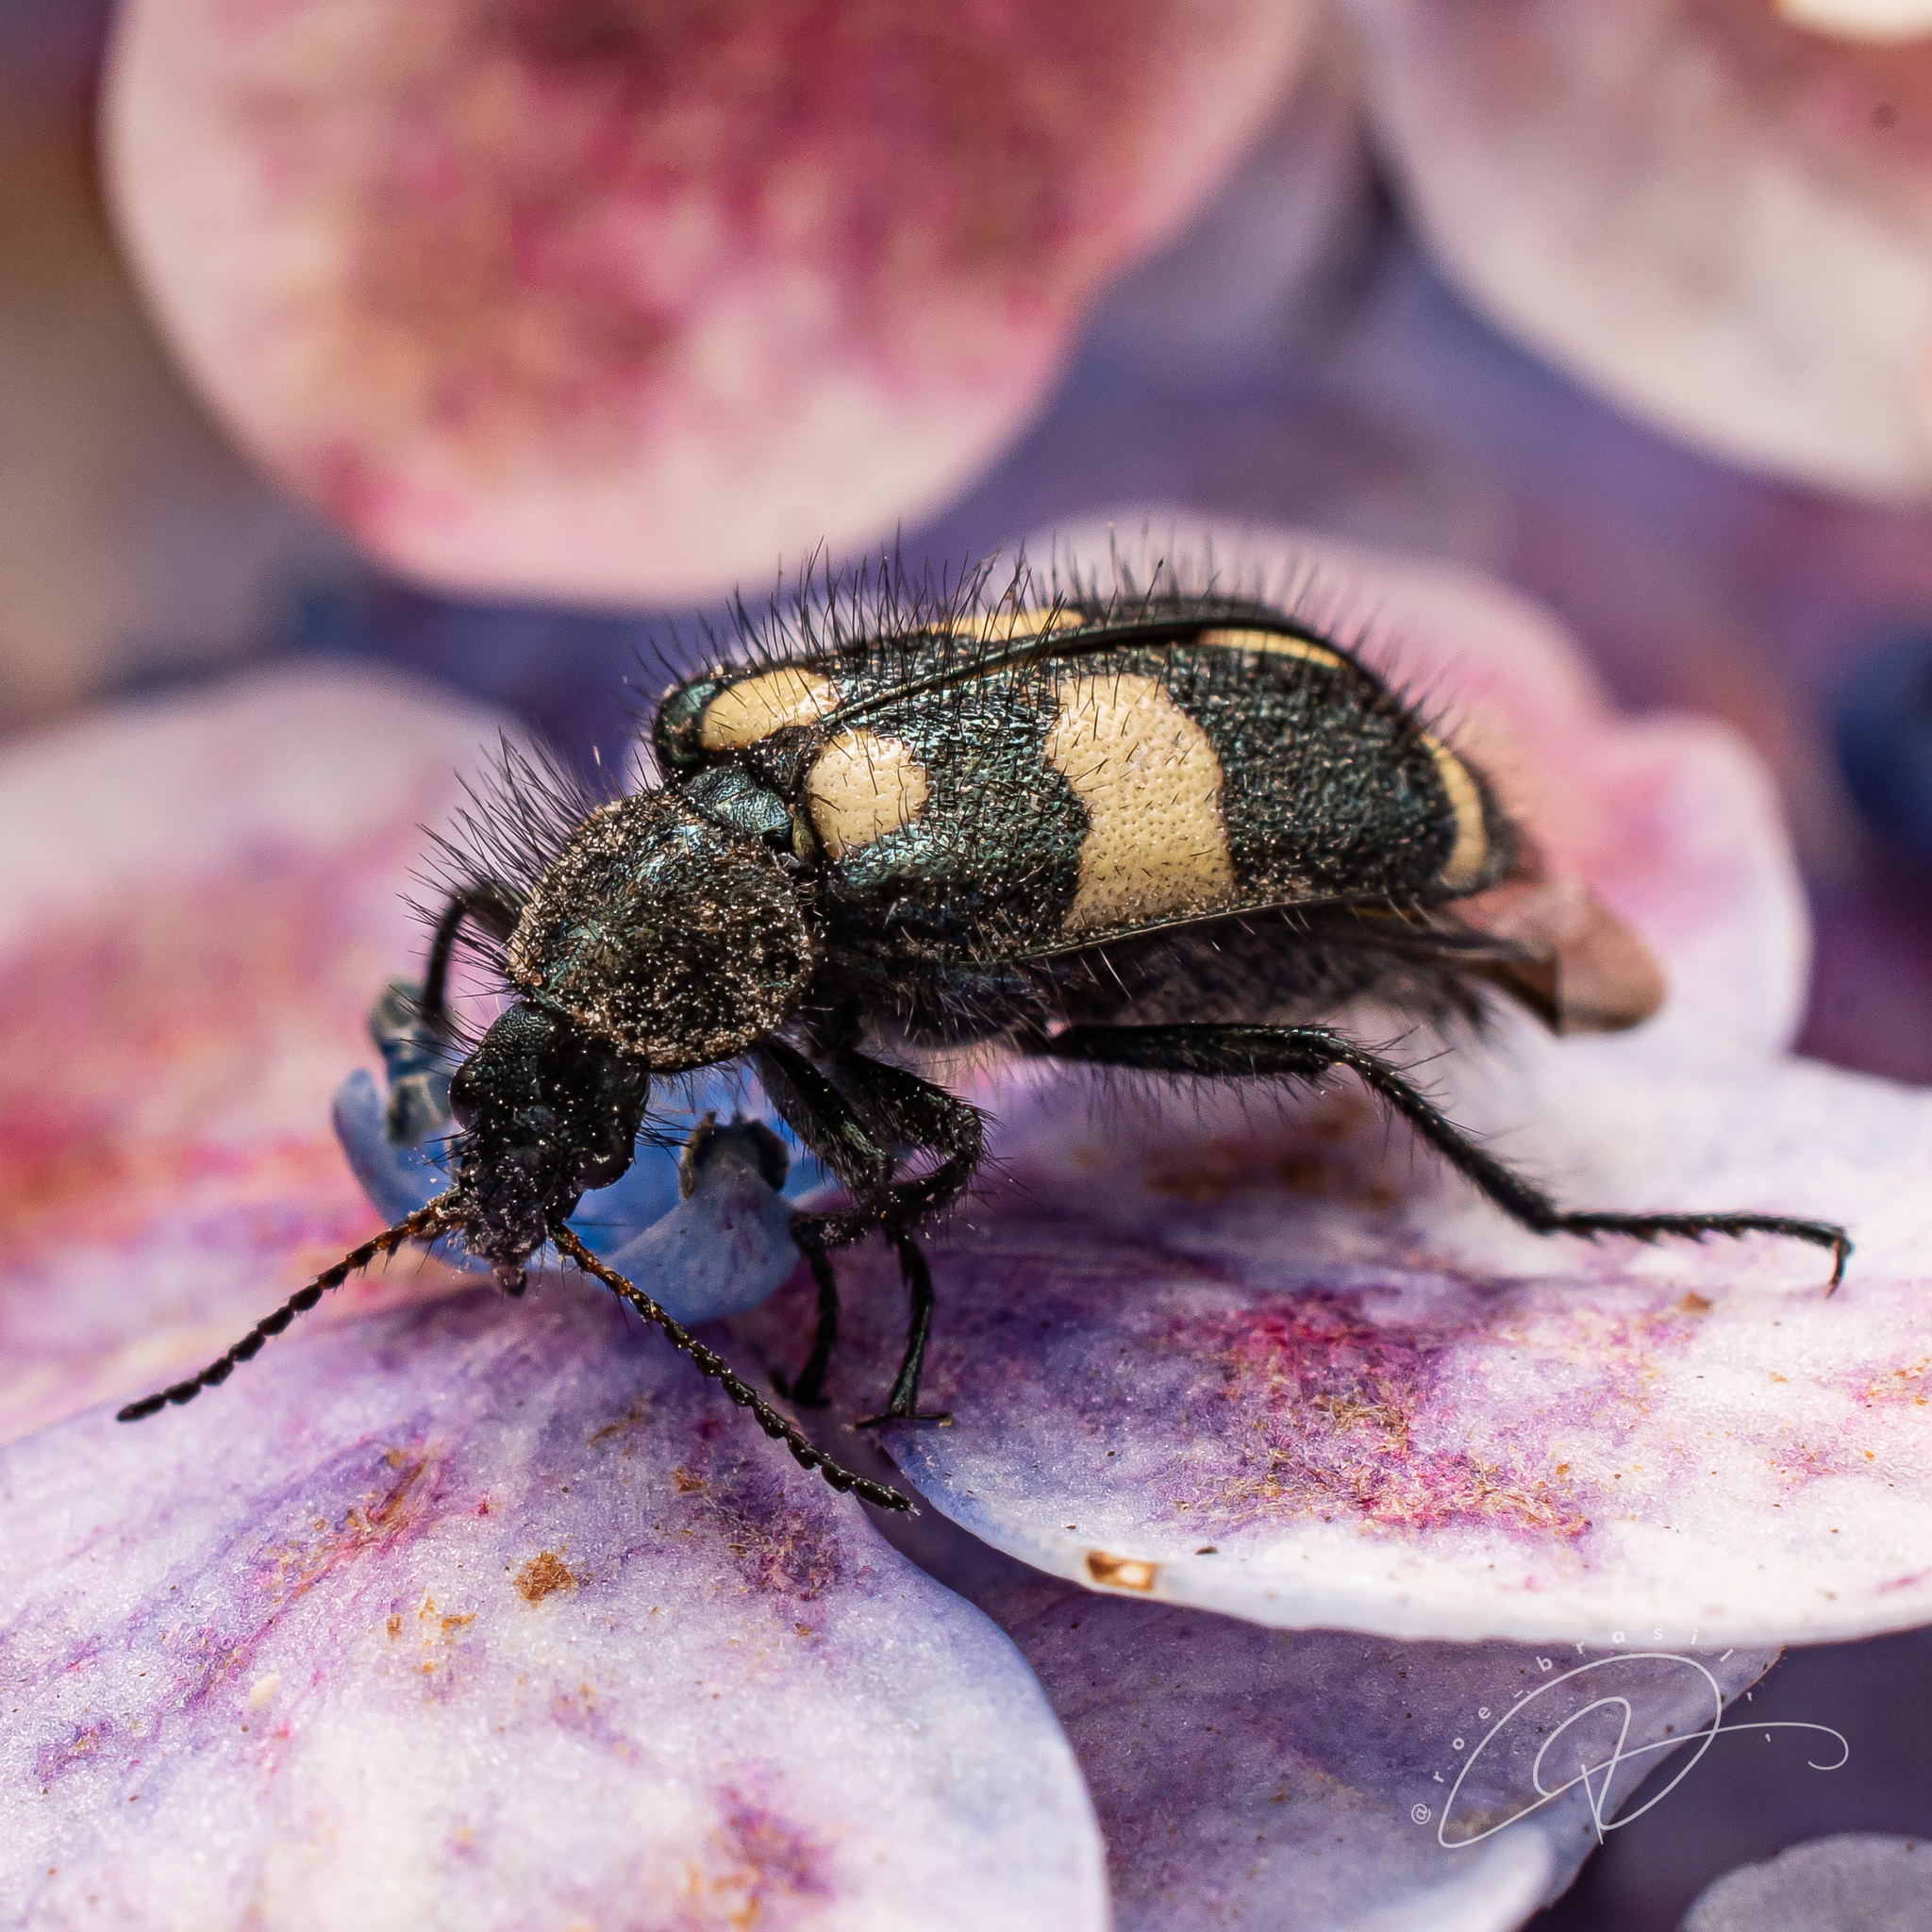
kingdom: Animalia
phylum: Arthropoda
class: Insecta
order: Coleoptera
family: Melyridae
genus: Astylus
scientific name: Astylus
